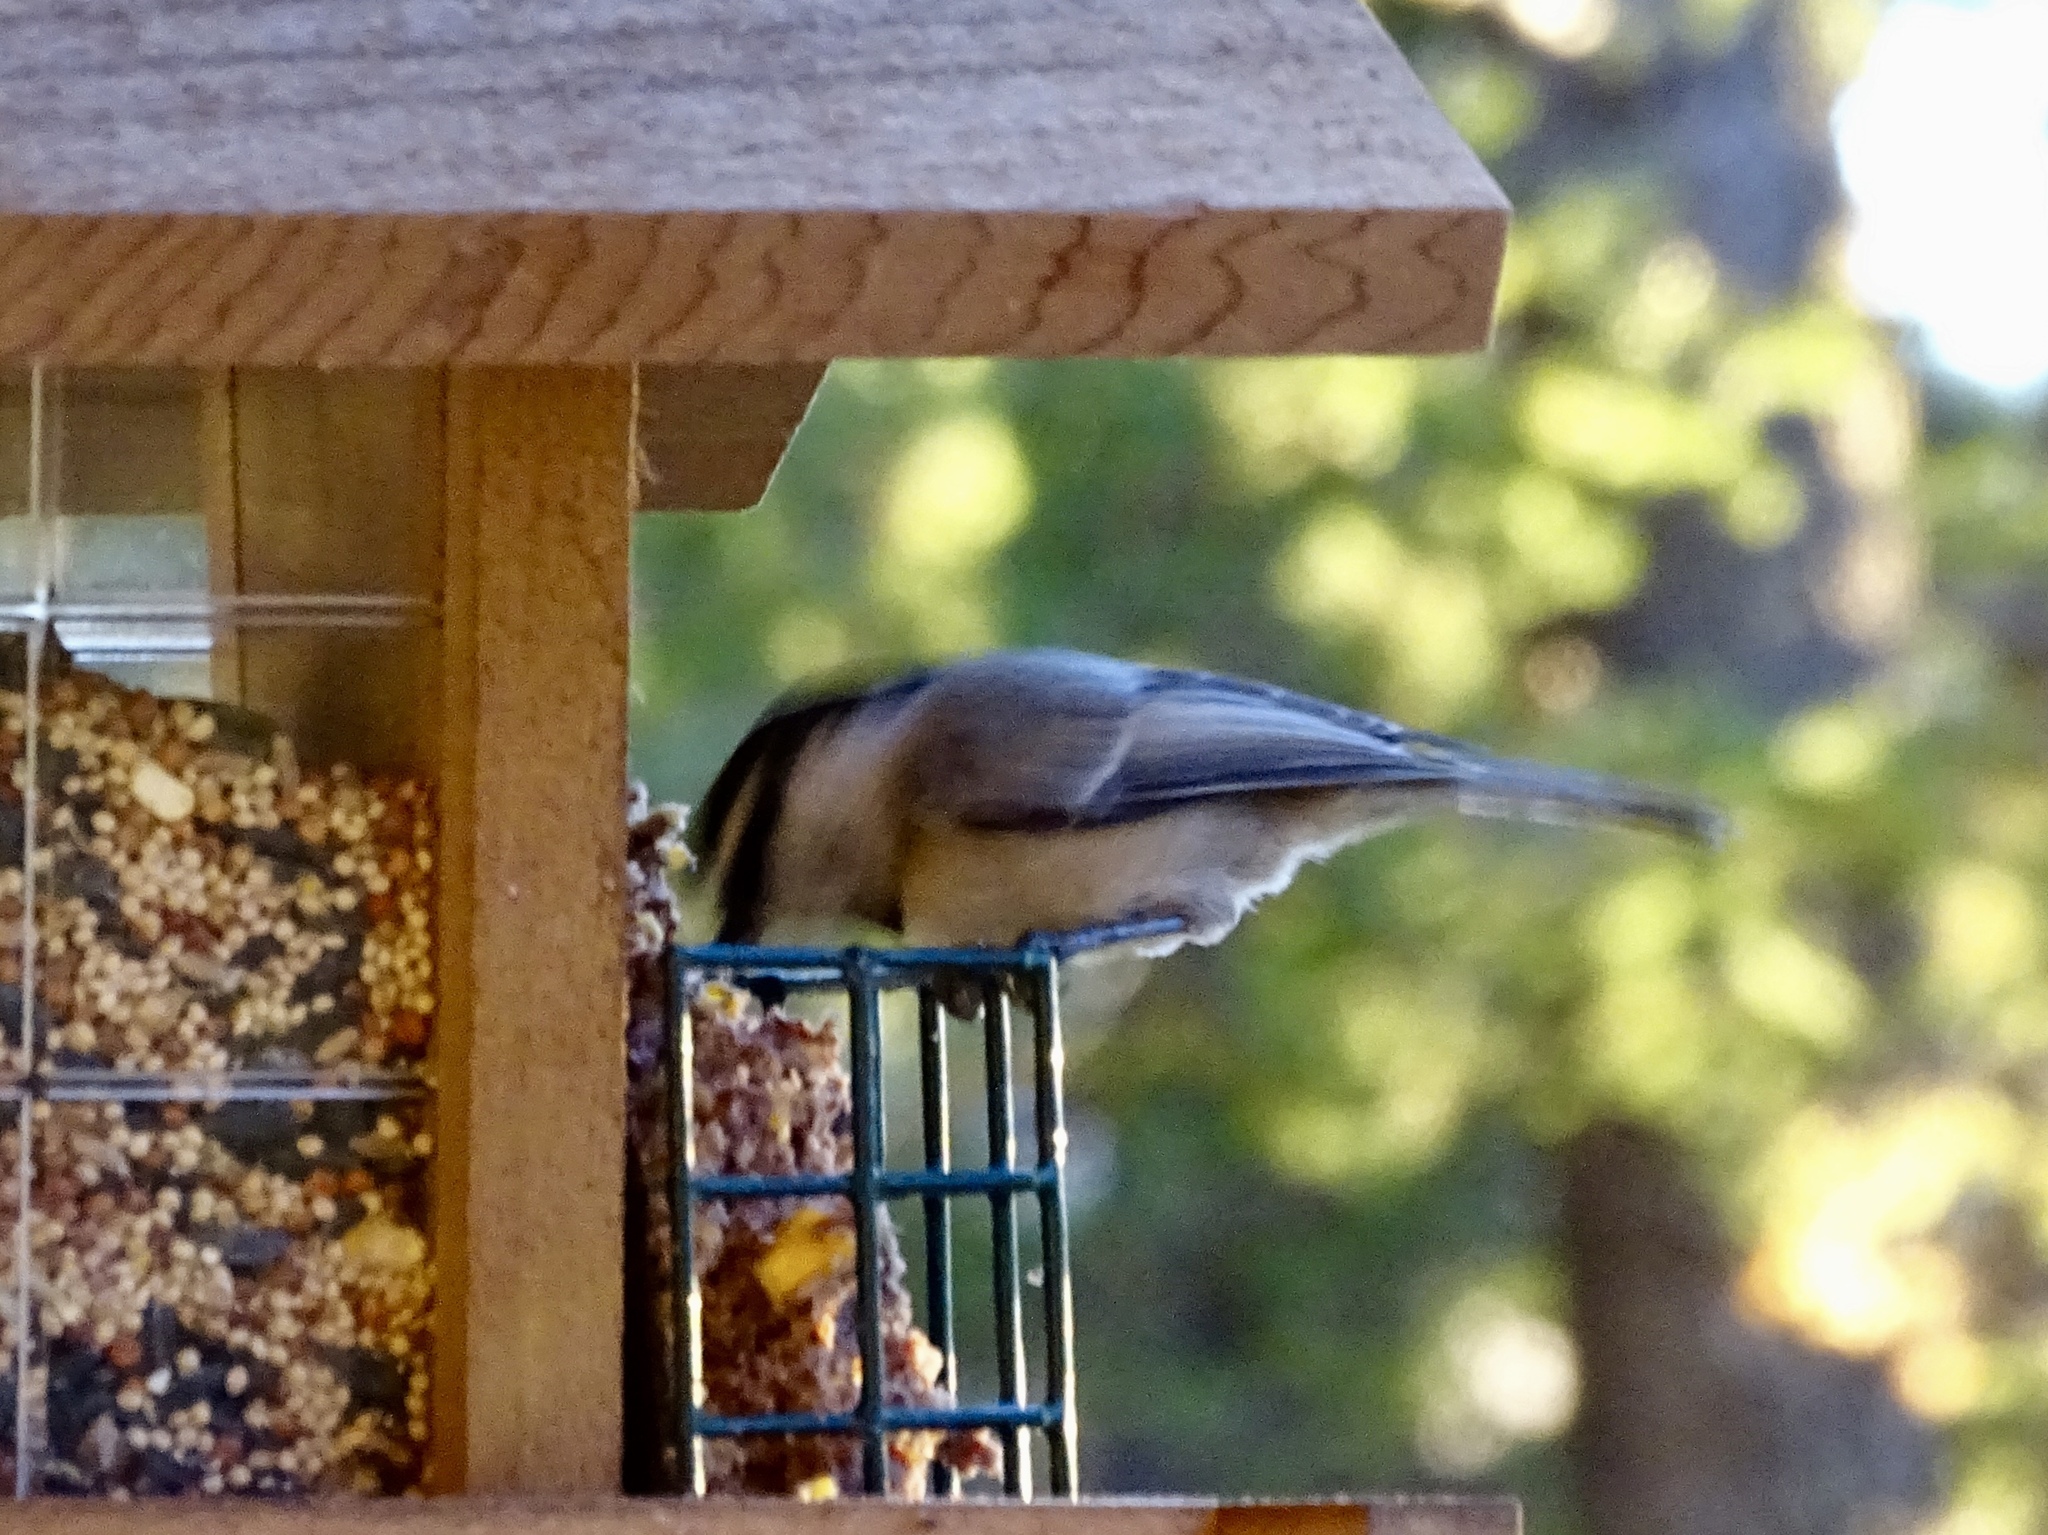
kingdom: Animalia
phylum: Chordata
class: Aves
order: Passeriformes
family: Paridae
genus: Poecile
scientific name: Poecile gambeli
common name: Mountain chickadee
